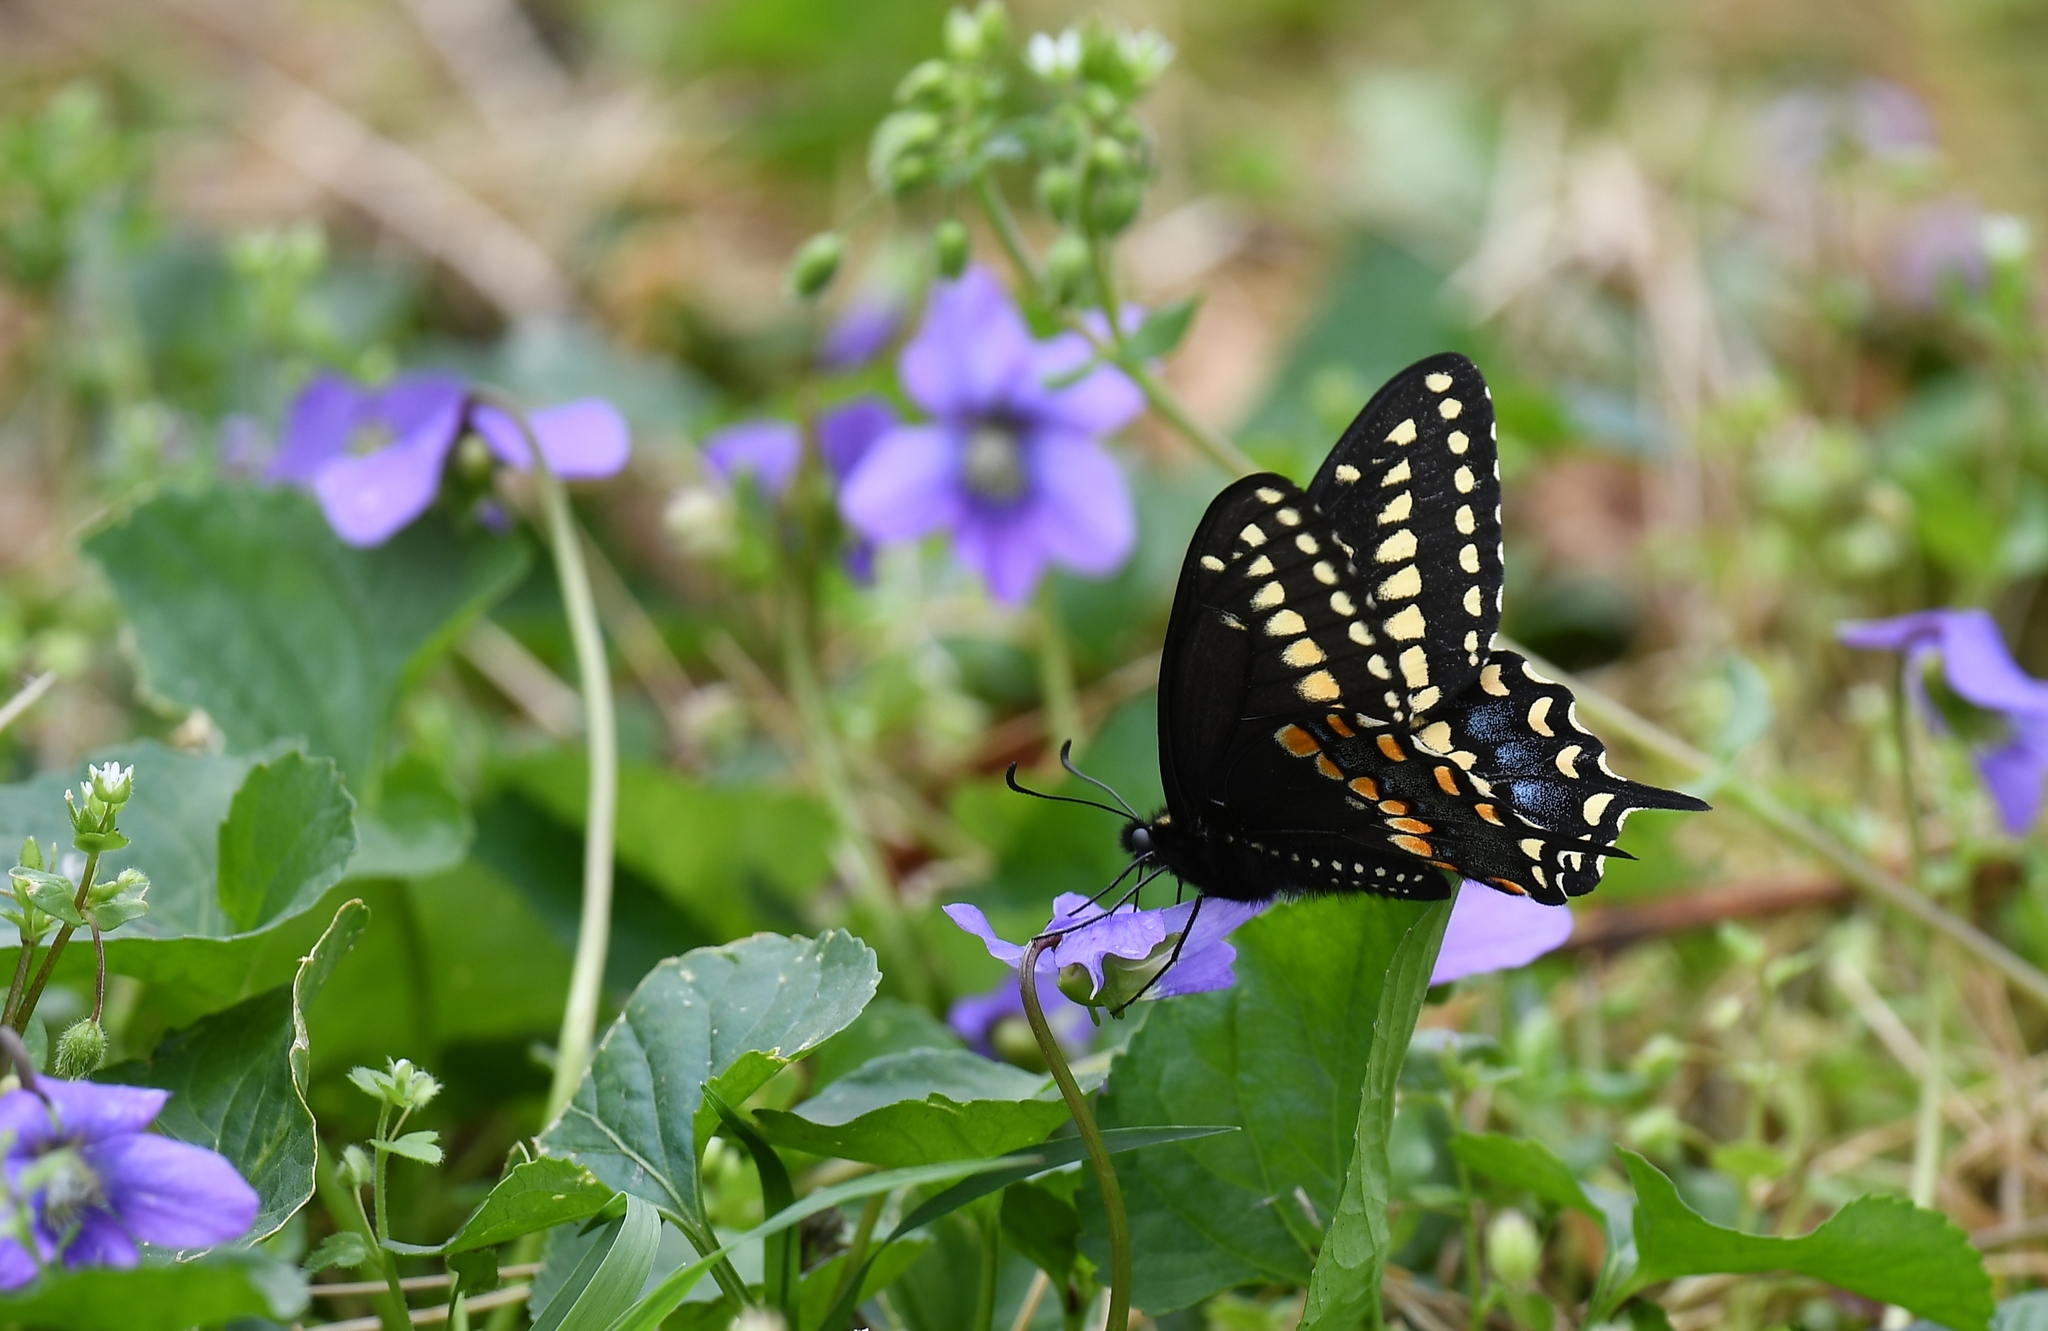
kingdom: Animalia
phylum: Arthropoda
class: Insecta
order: Lepidoptera
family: Papilionidae
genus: Papilio
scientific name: Papilio polyxenes
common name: Black swallowtail
